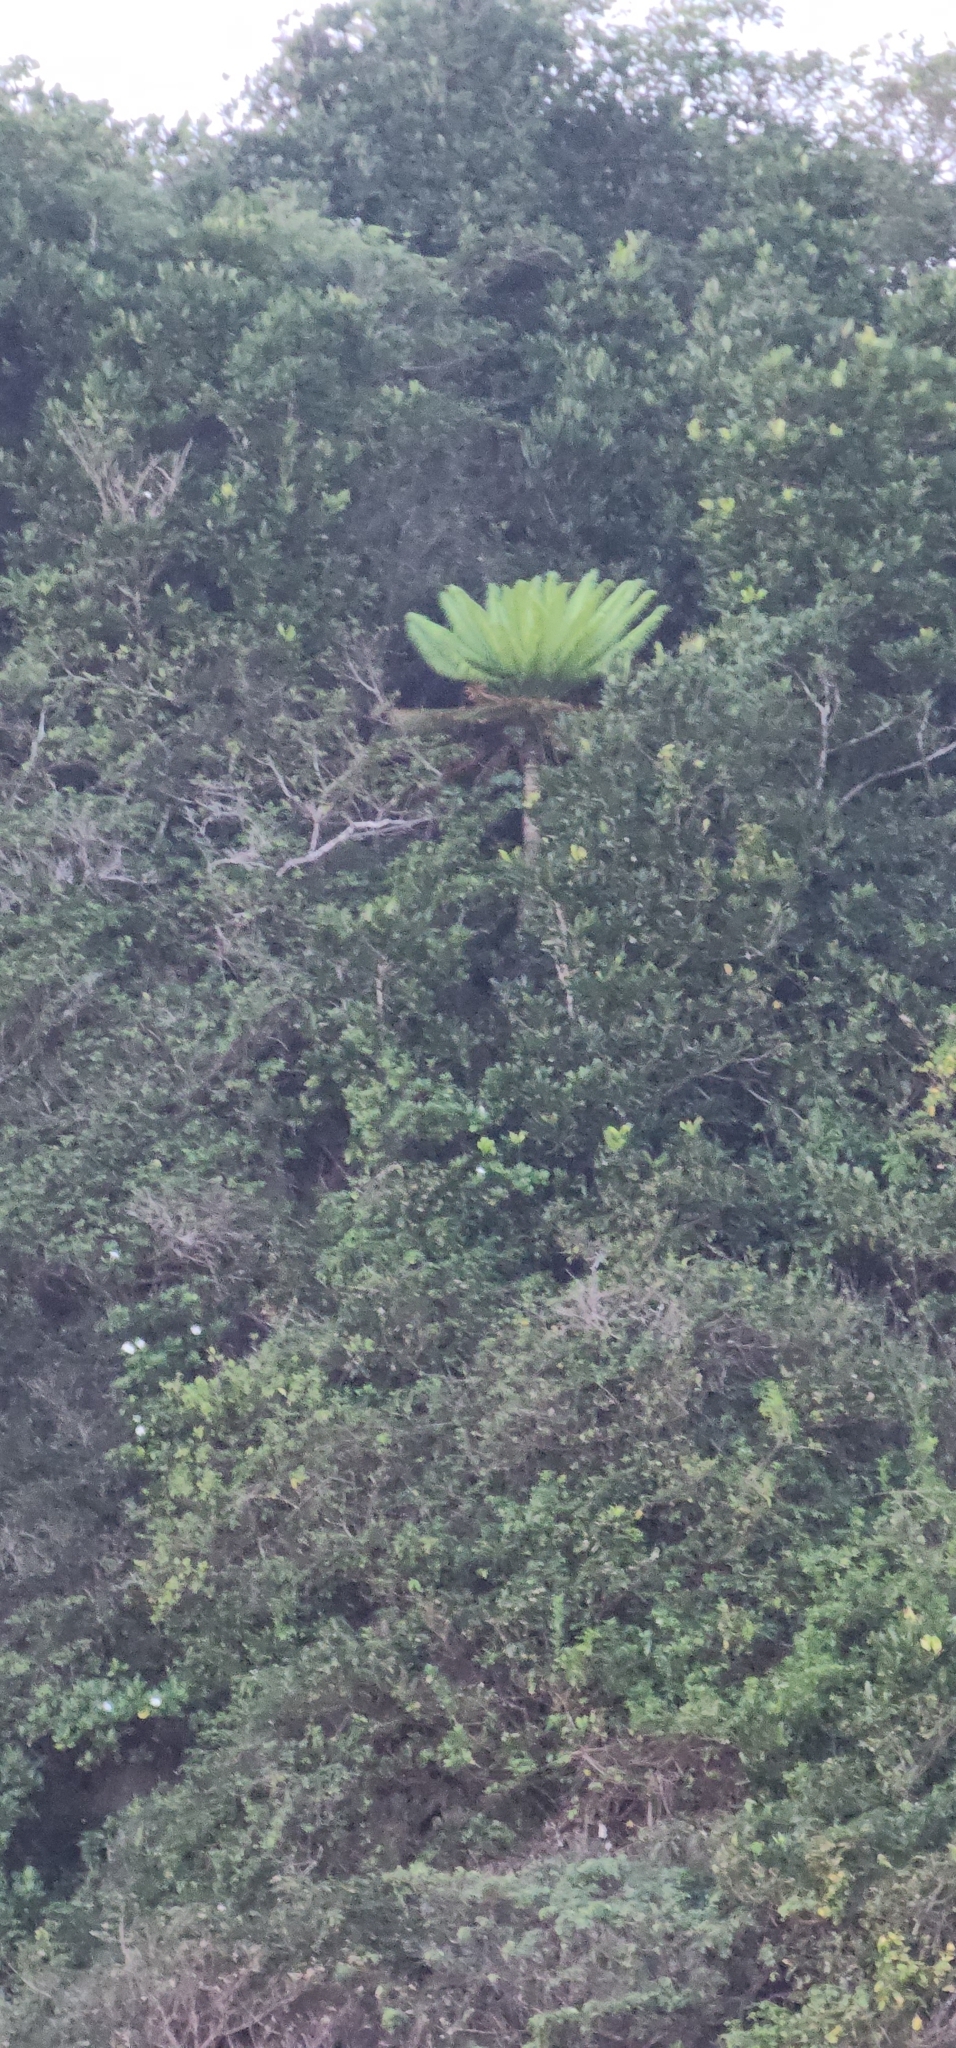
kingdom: Plantae
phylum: Tracheophyta
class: Cycadopsida
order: Cycadales
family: Cycadaceae
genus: Cycas
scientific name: Cycas micronesica
